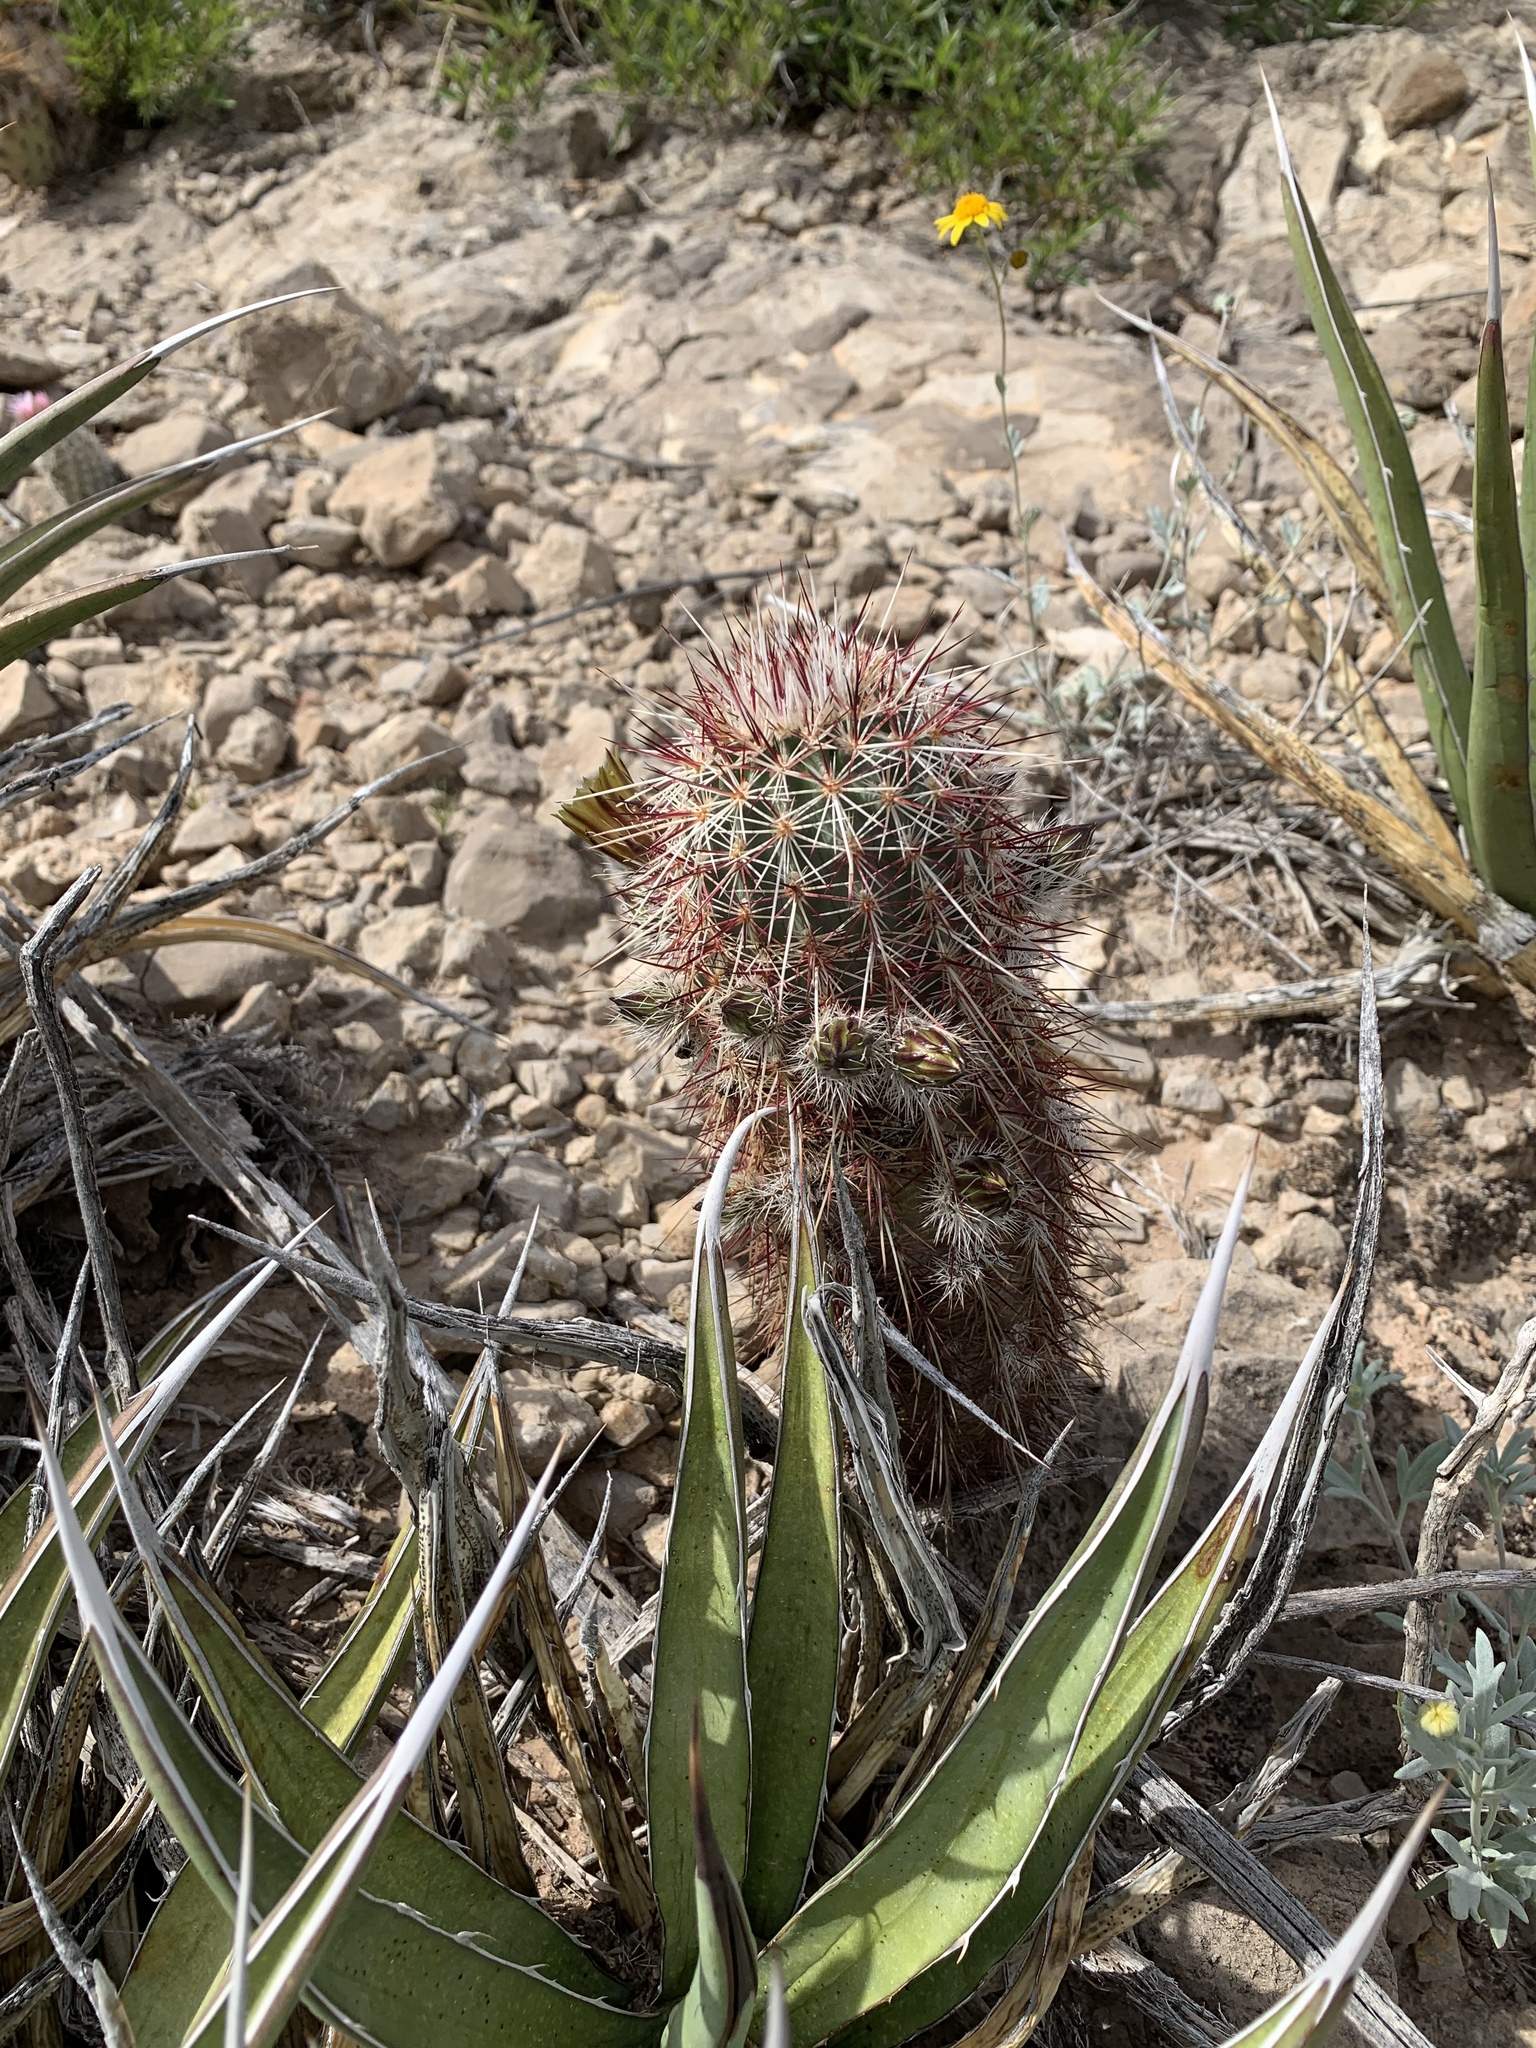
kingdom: Plantae
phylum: Tracheophyta
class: Magnoliopsida
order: Caryophyllales
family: Cactaceae
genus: Echinocereus
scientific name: Echinocereus viridiflorus
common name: Nylon hedgehog cactus
